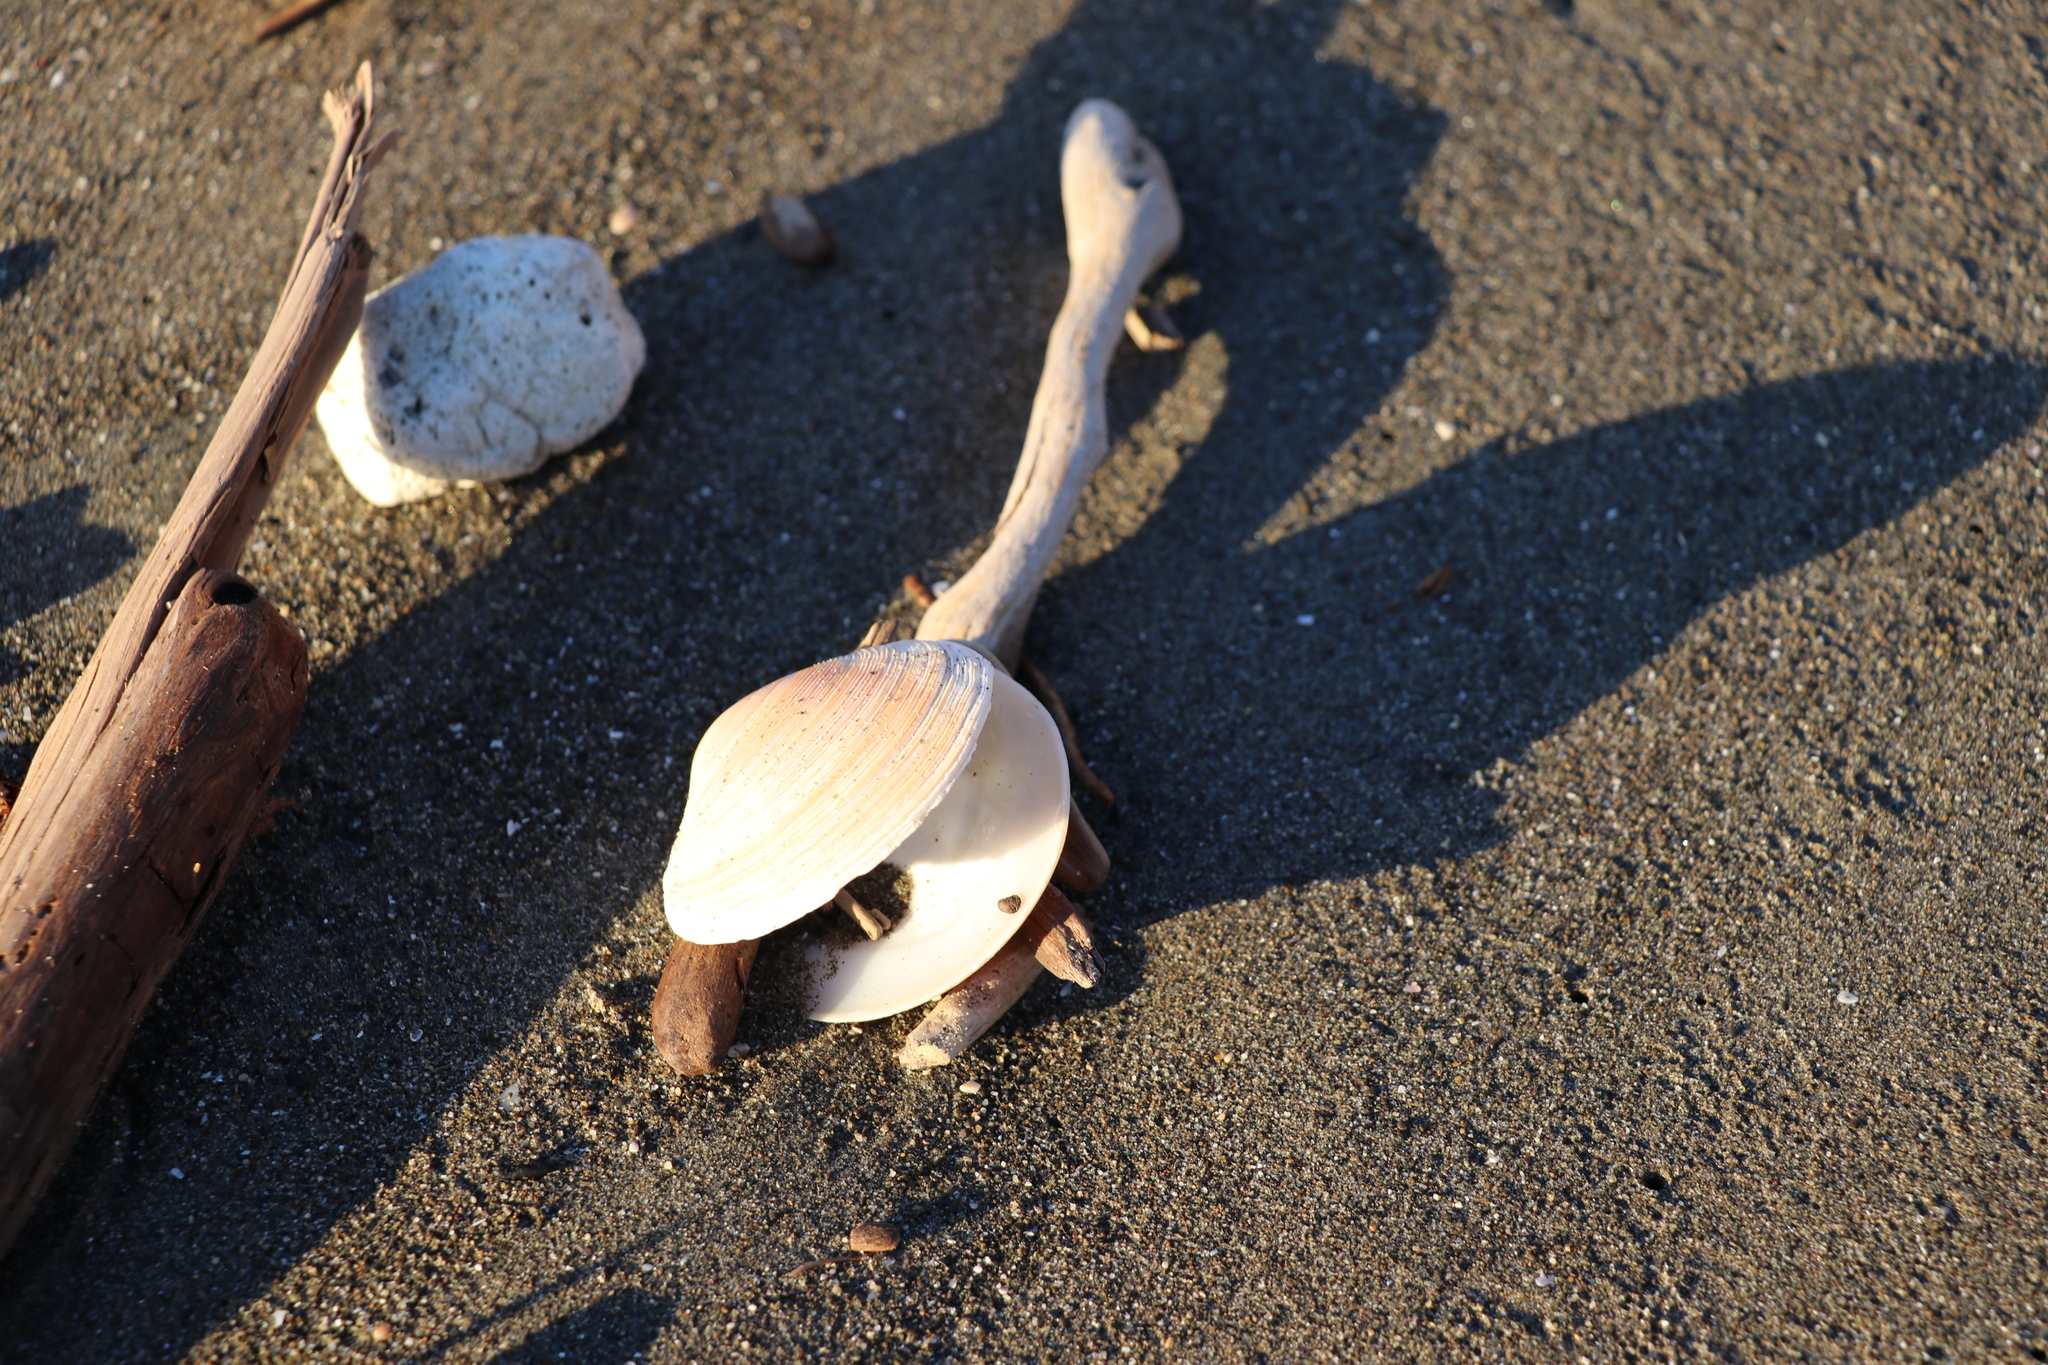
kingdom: Animalia
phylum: Mollusca
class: Bivalvia
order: Venerida
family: Veneridae
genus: Dosinia
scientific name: Dosinia anus
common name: Old-woman dosinia
